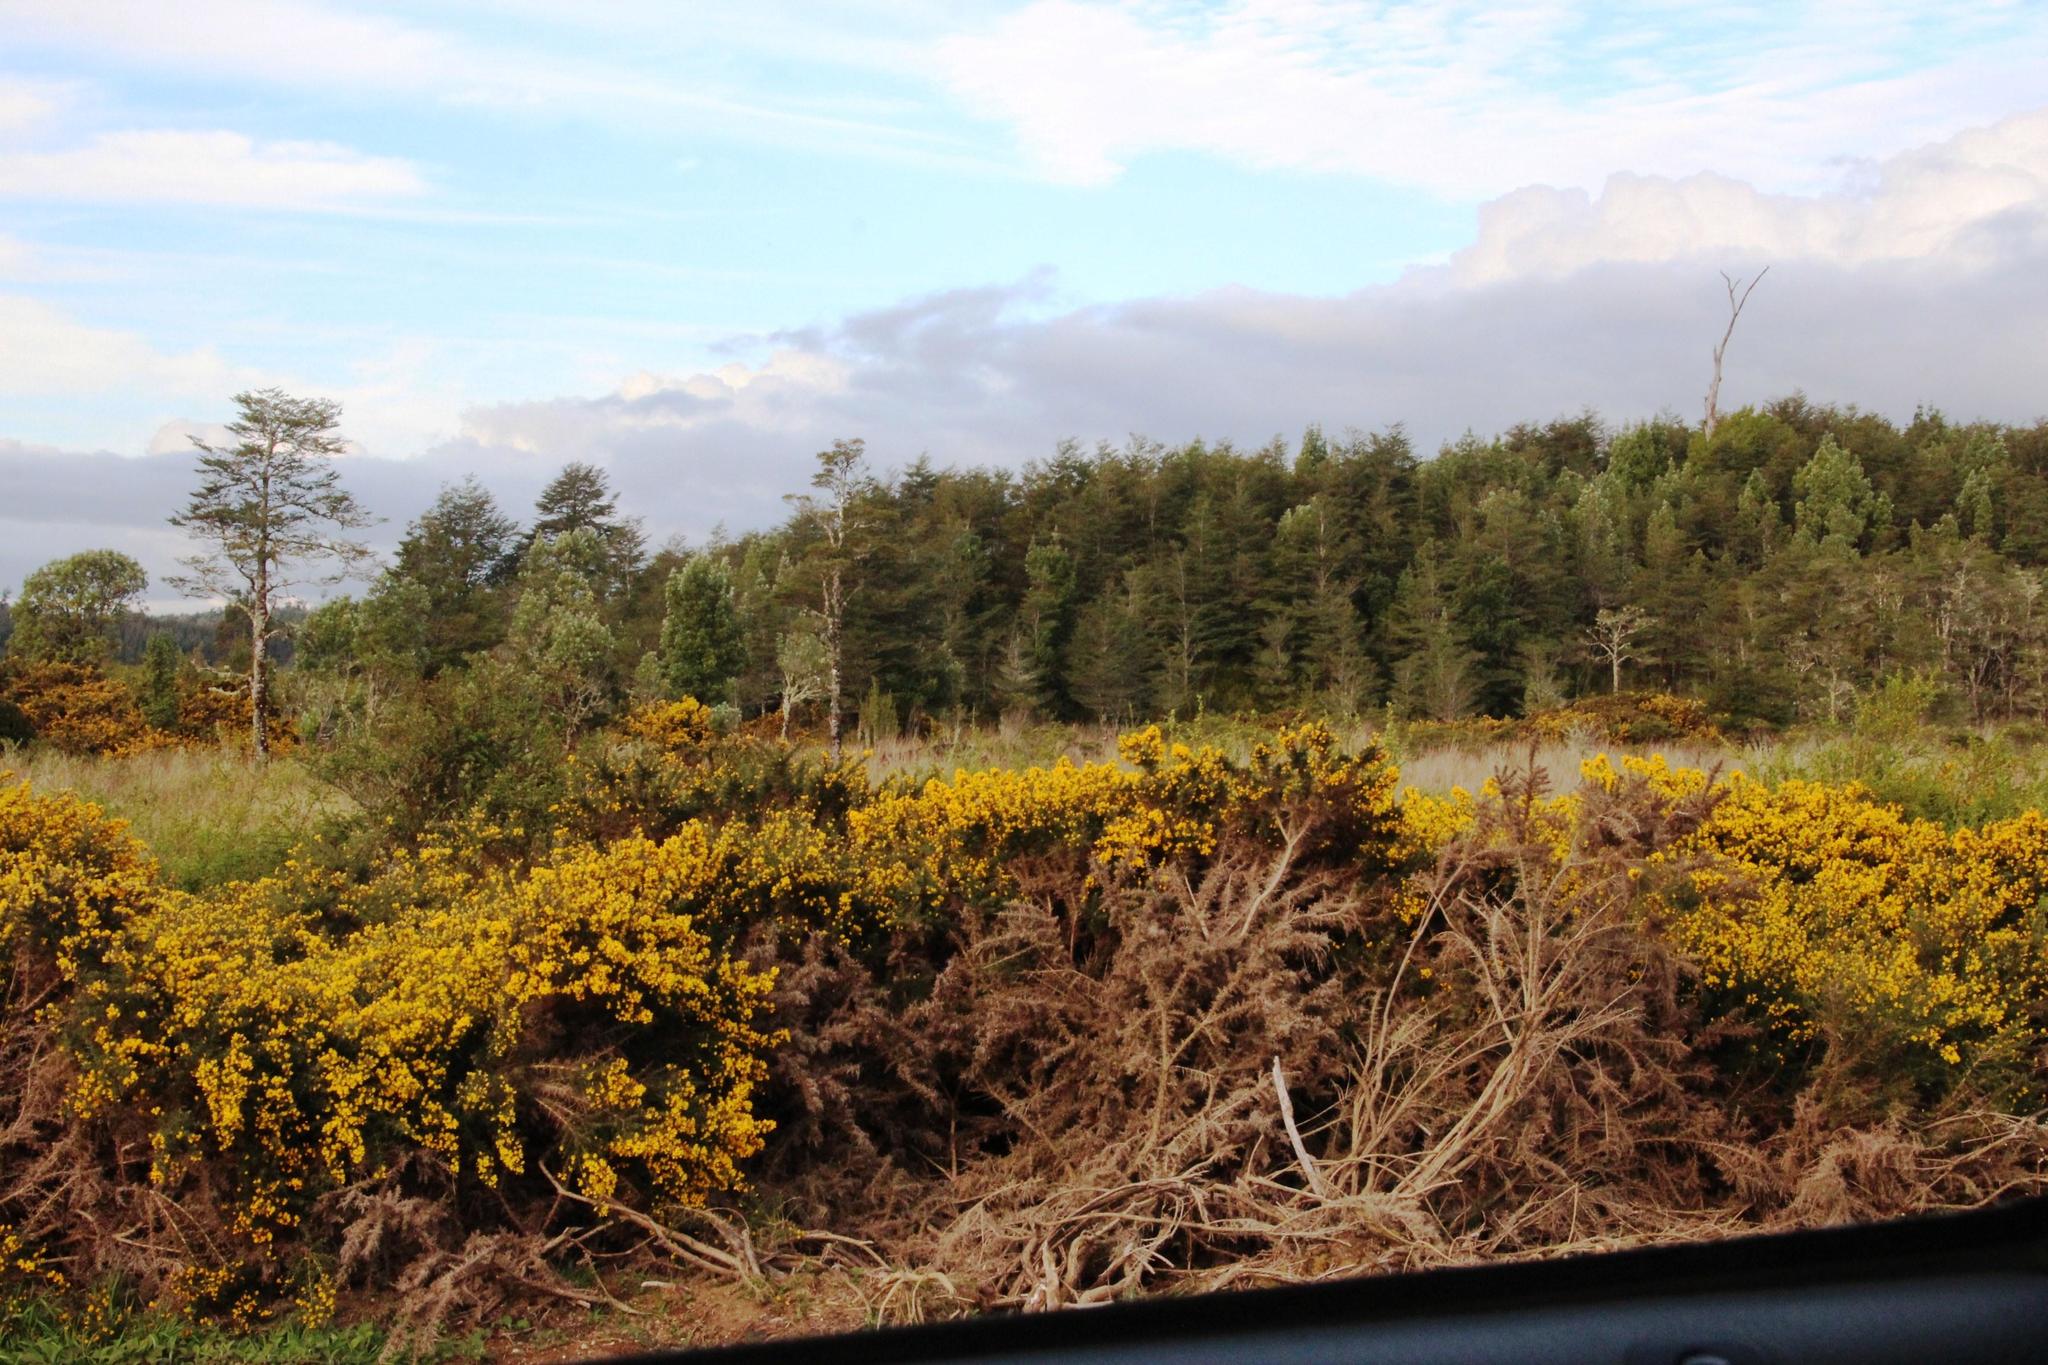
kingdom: Plantae
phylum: Tracheophyta
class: Magnoliopsida
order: Fabales
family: Fabaceae
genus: Ulex
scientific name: Ulex europaeus
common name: Common gorse
